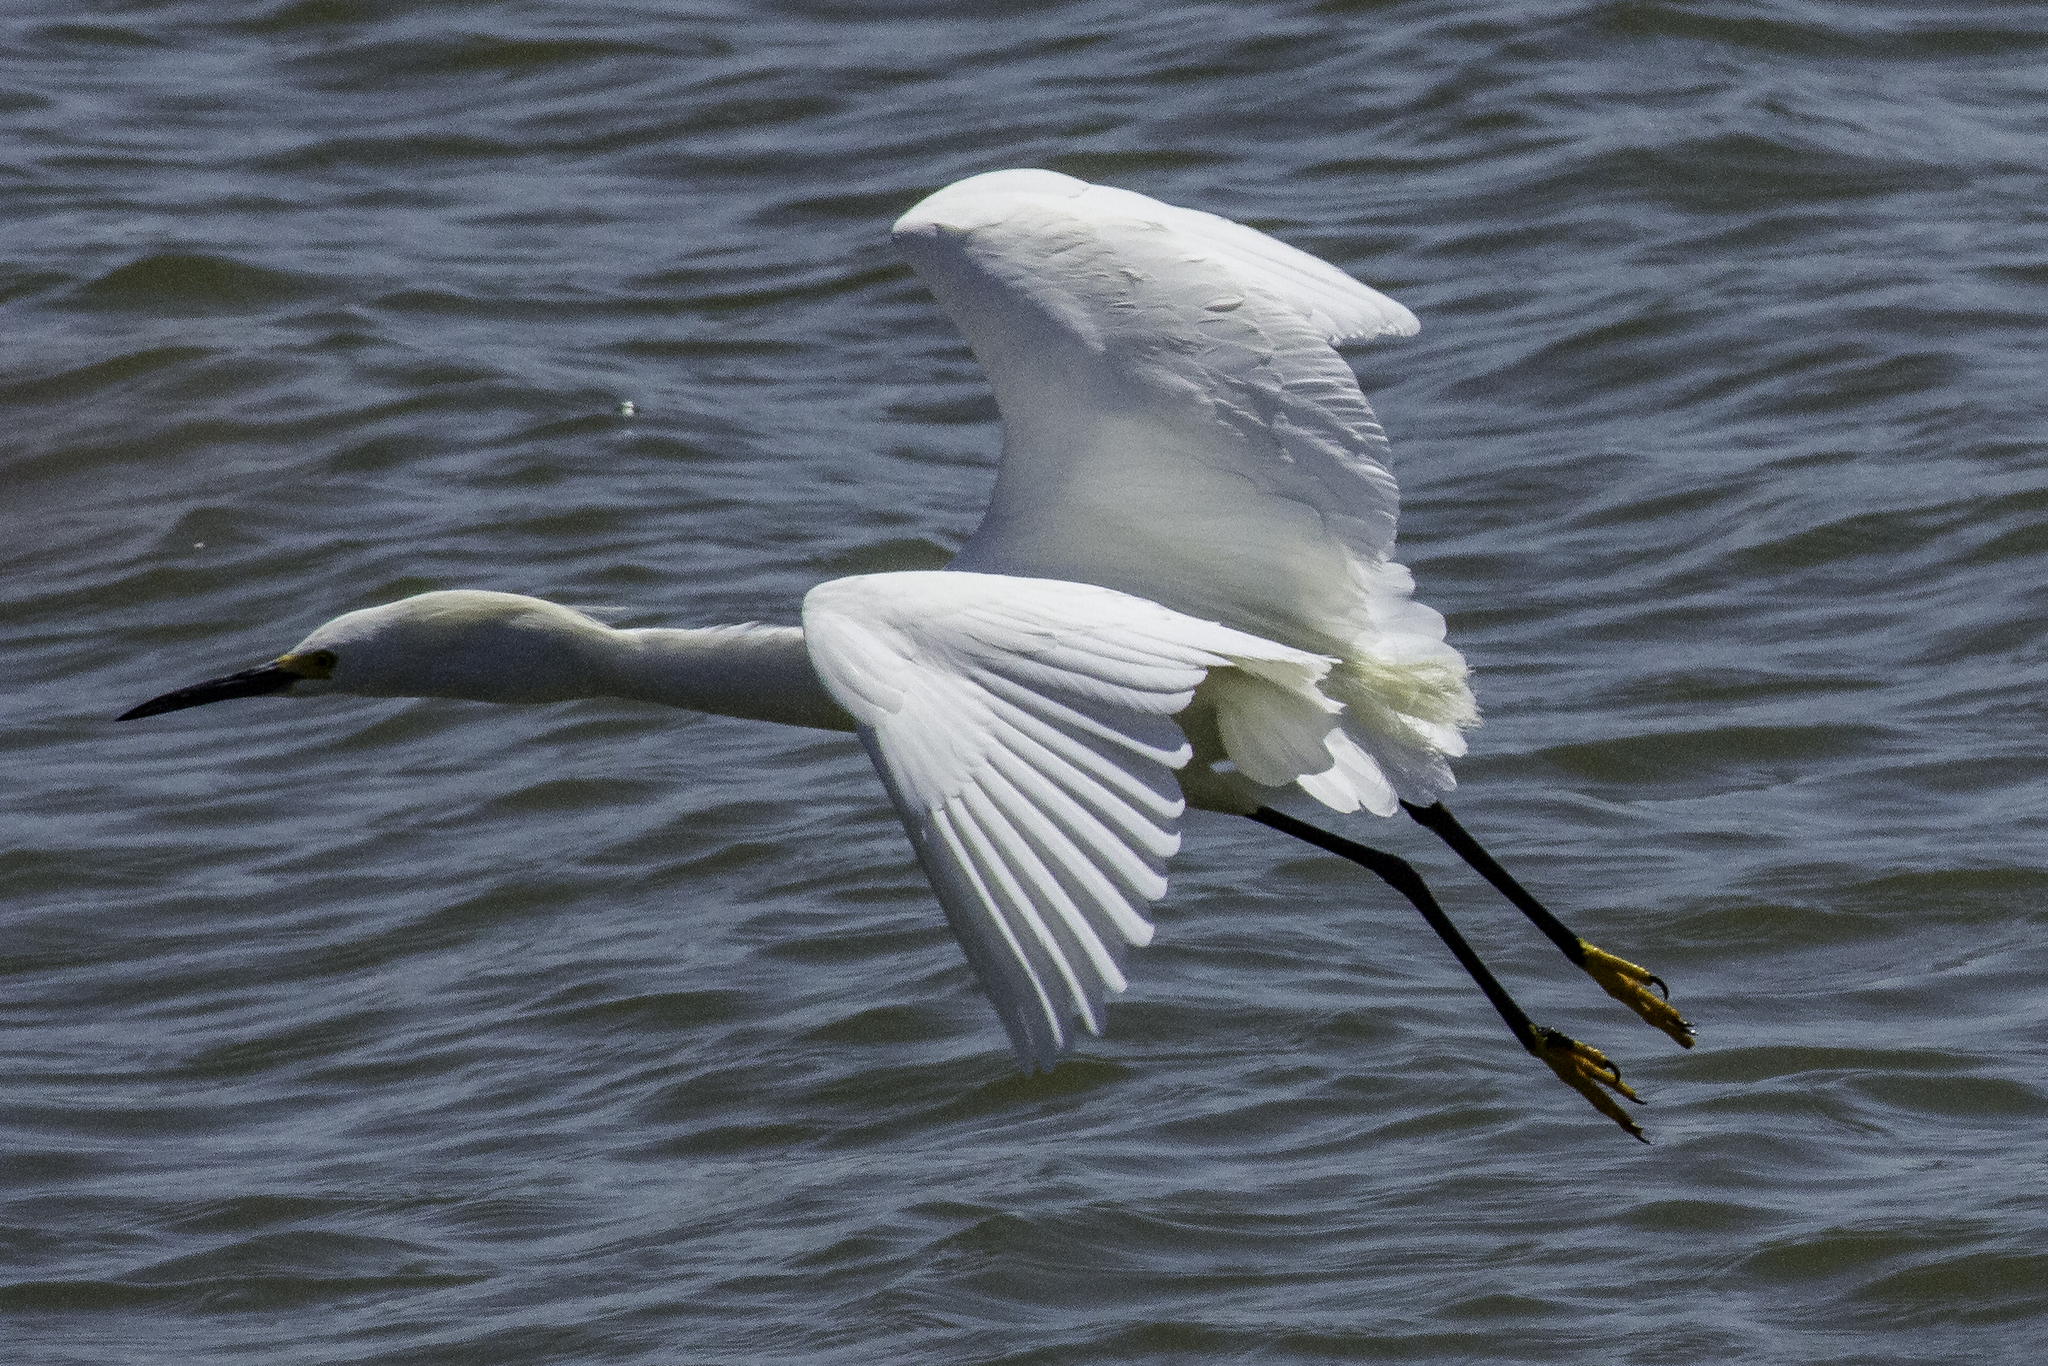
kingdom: Animalia
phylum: Chordata
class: Aves
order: Pelecaniformes
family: Ardeidae
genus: Egretta
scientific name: Egretta thula
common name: Snowy egret
